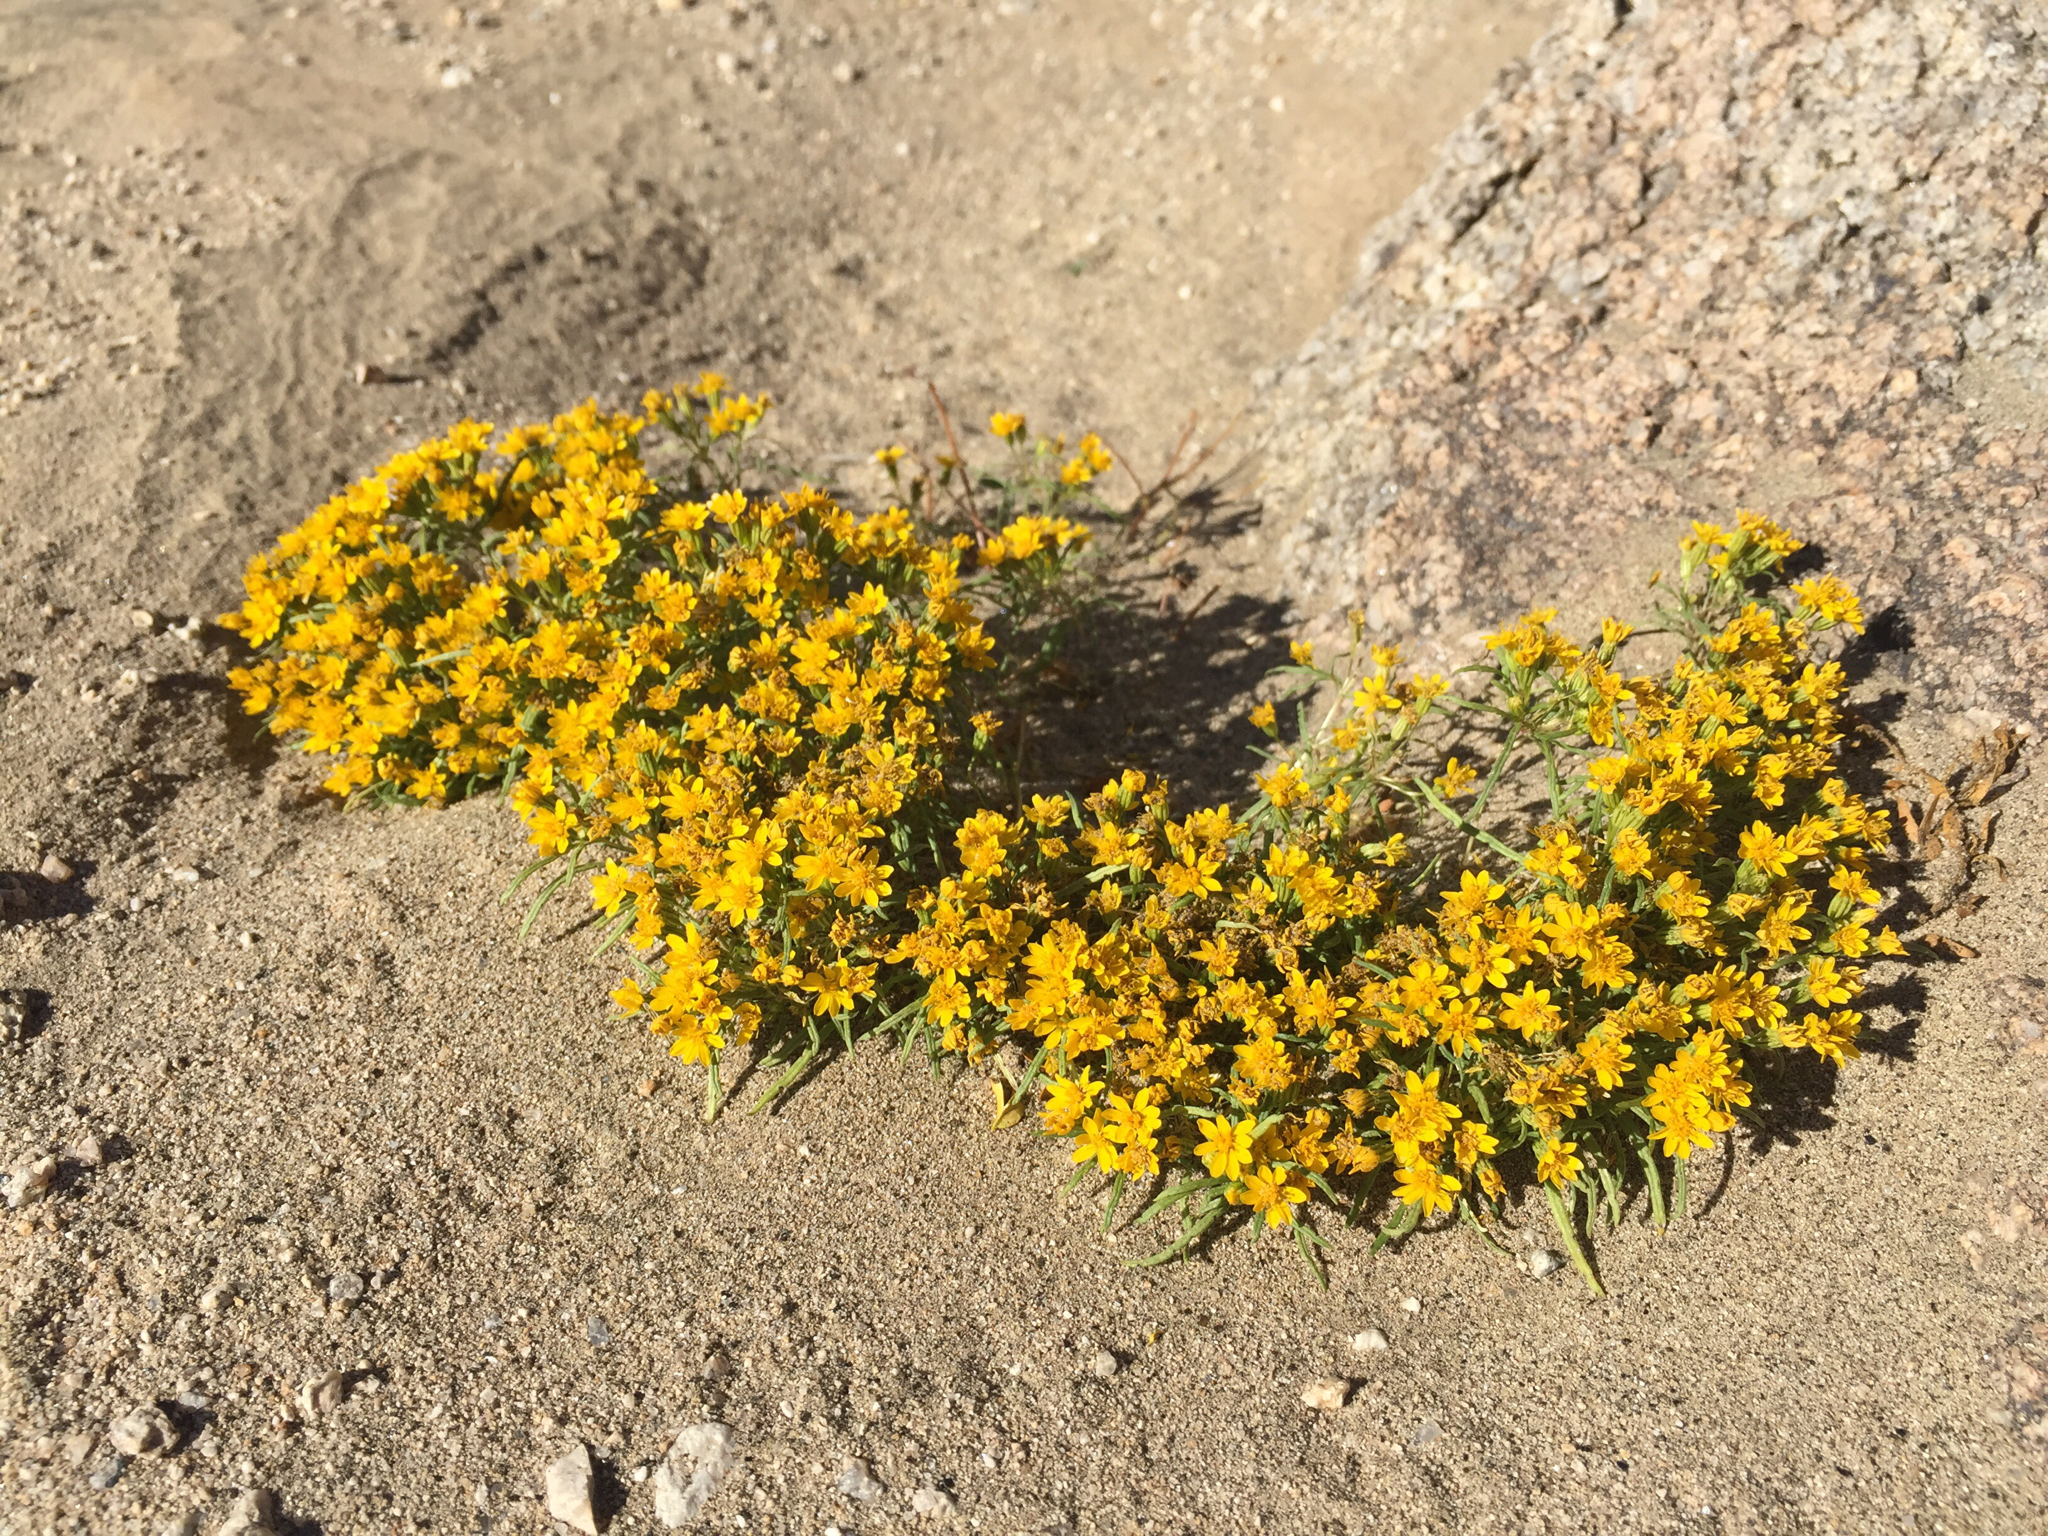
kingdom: Plantae
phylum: Tracheophyta
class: Magnoliopsida
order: Asterales
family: Asteraceae
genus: Pectis
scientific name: Pectis papposa
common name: Many-bristle chinchweed
